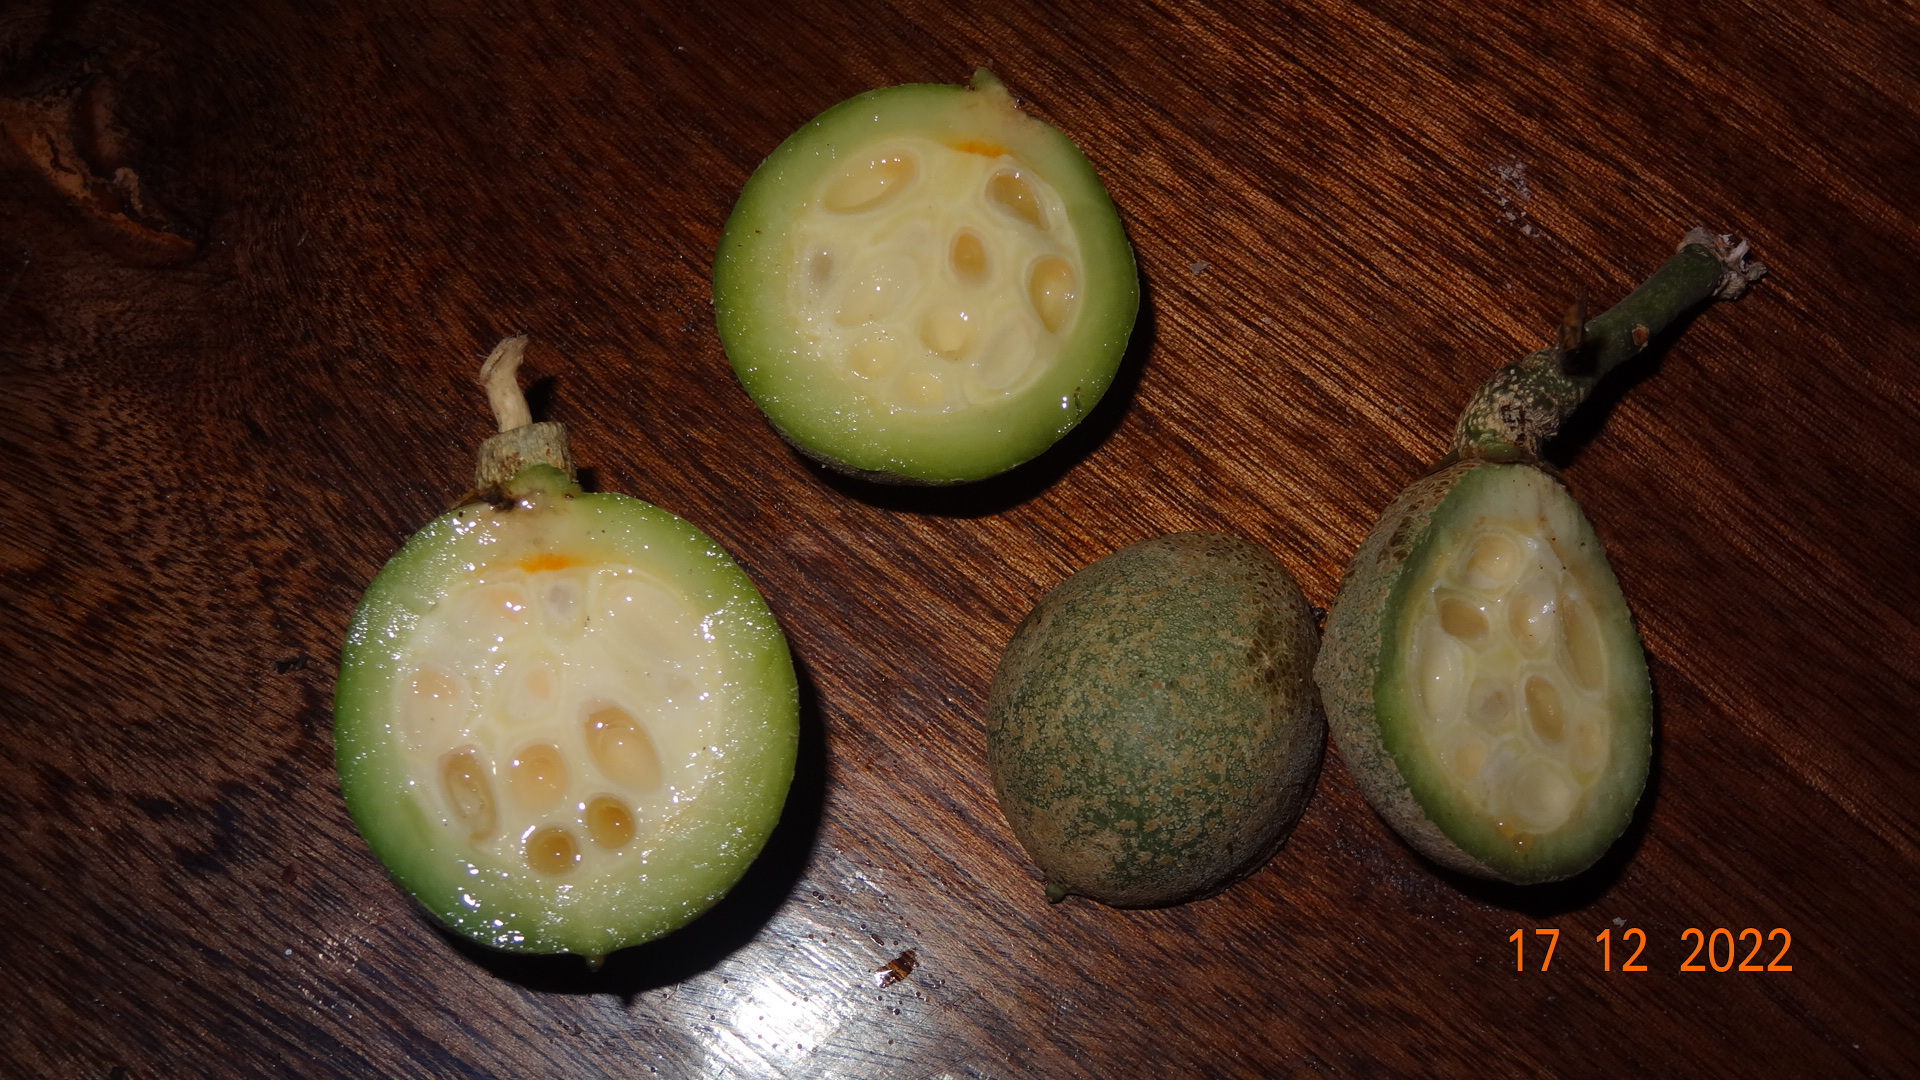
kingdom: Plantae
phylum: Tracheophyta
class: Magnoliopsida
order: Malpighiales
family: Violaceae
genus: Leonia
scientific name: Leonia glycycarpa
